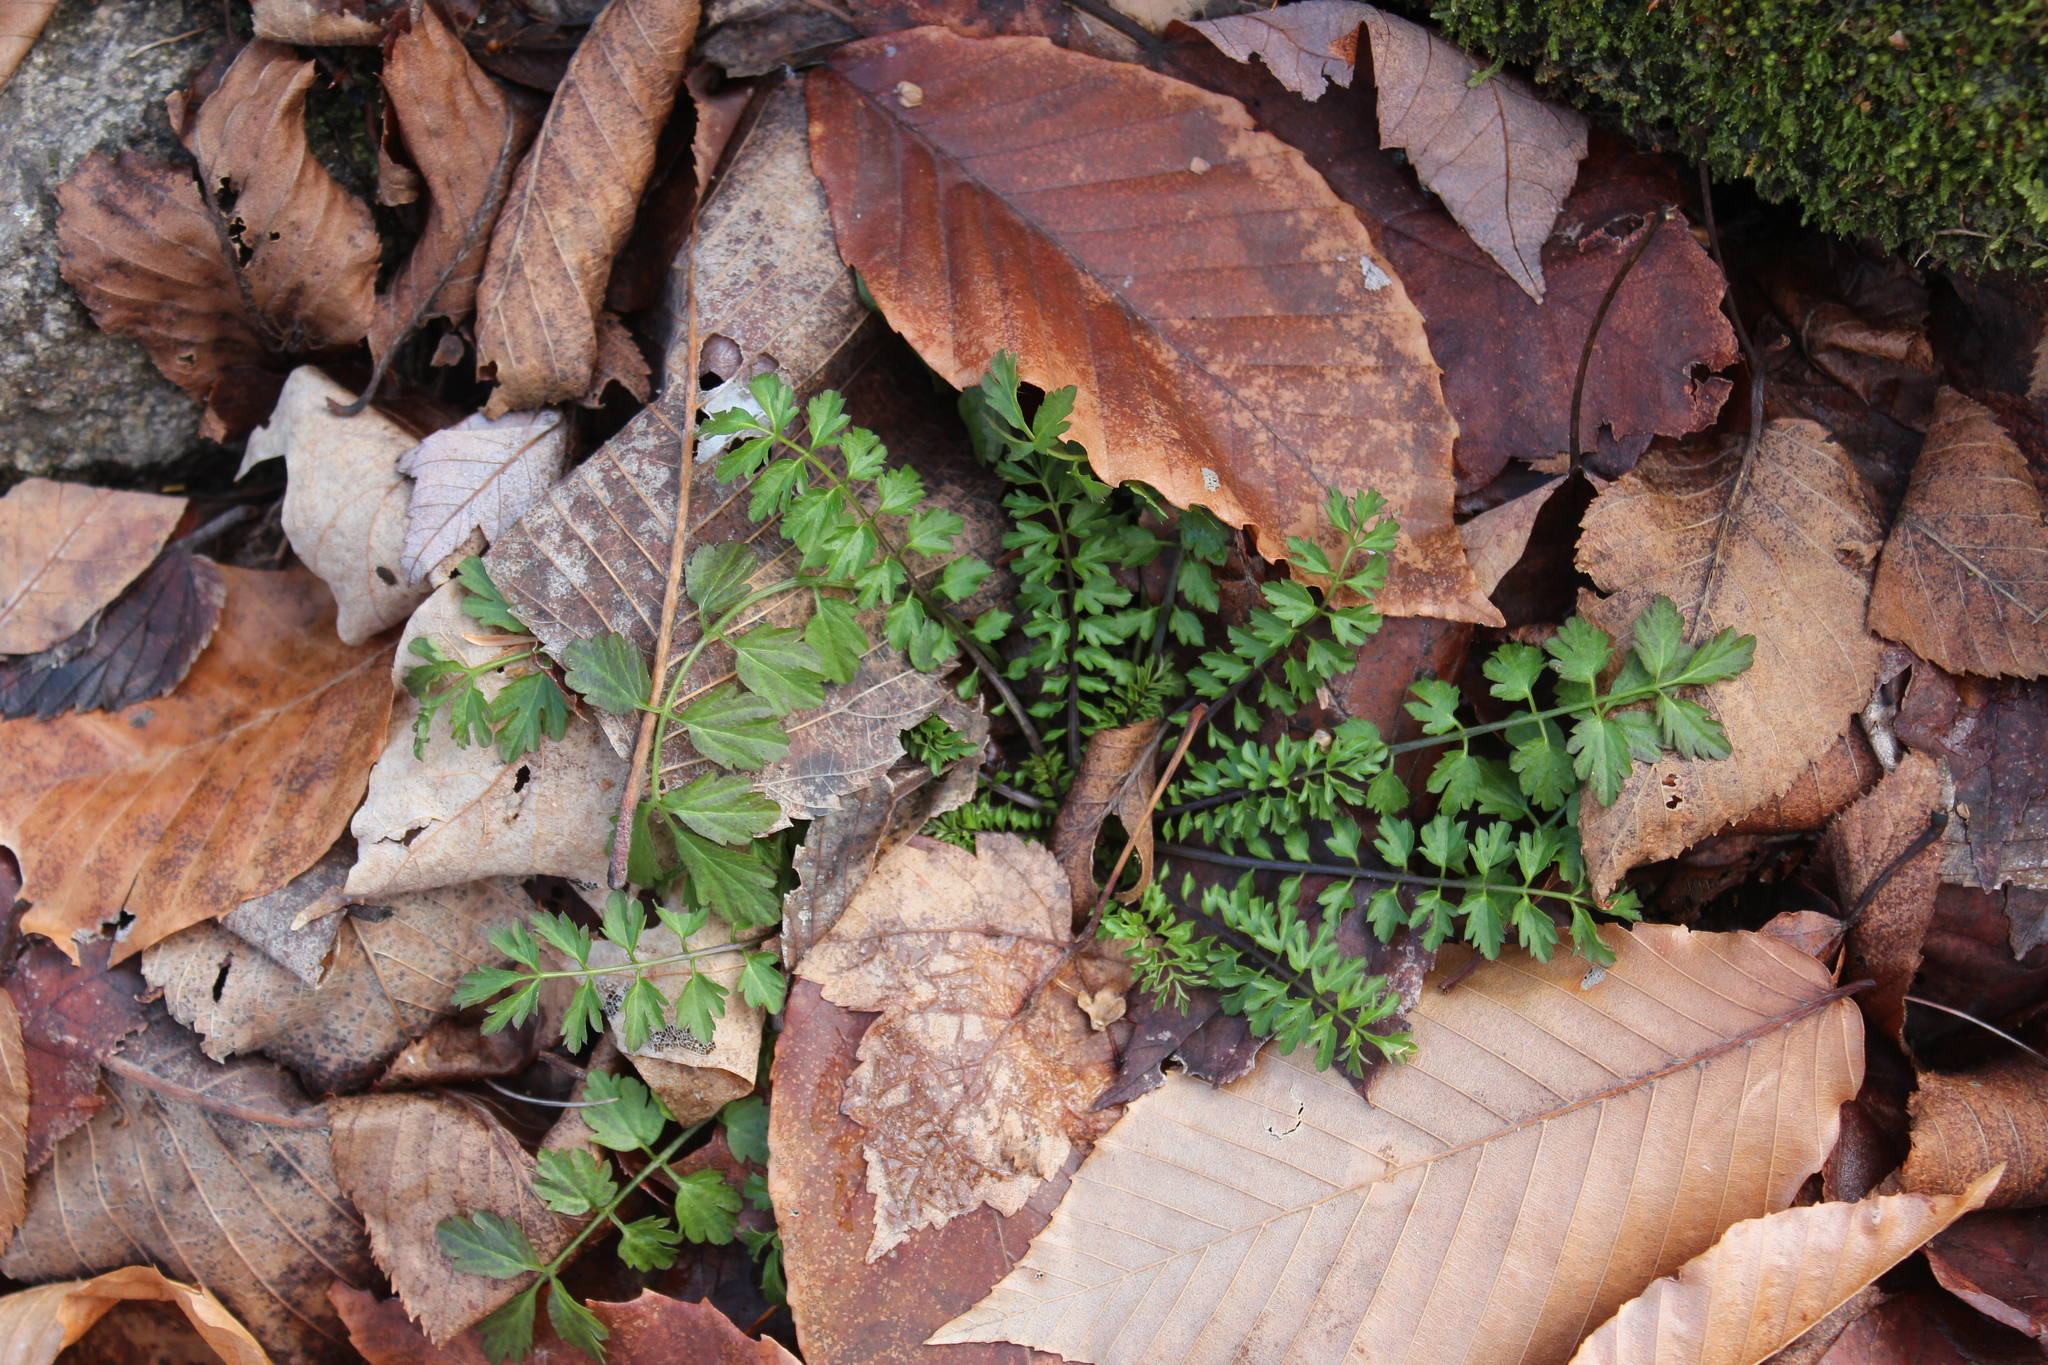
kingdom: Plantae
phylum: Tracheophyta
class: Magnoliopsida
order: Brassicales
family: Brassicaceae
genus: Cardamine
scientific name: Cardamine impatiens
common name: Narrow-leaved bitter-cress
